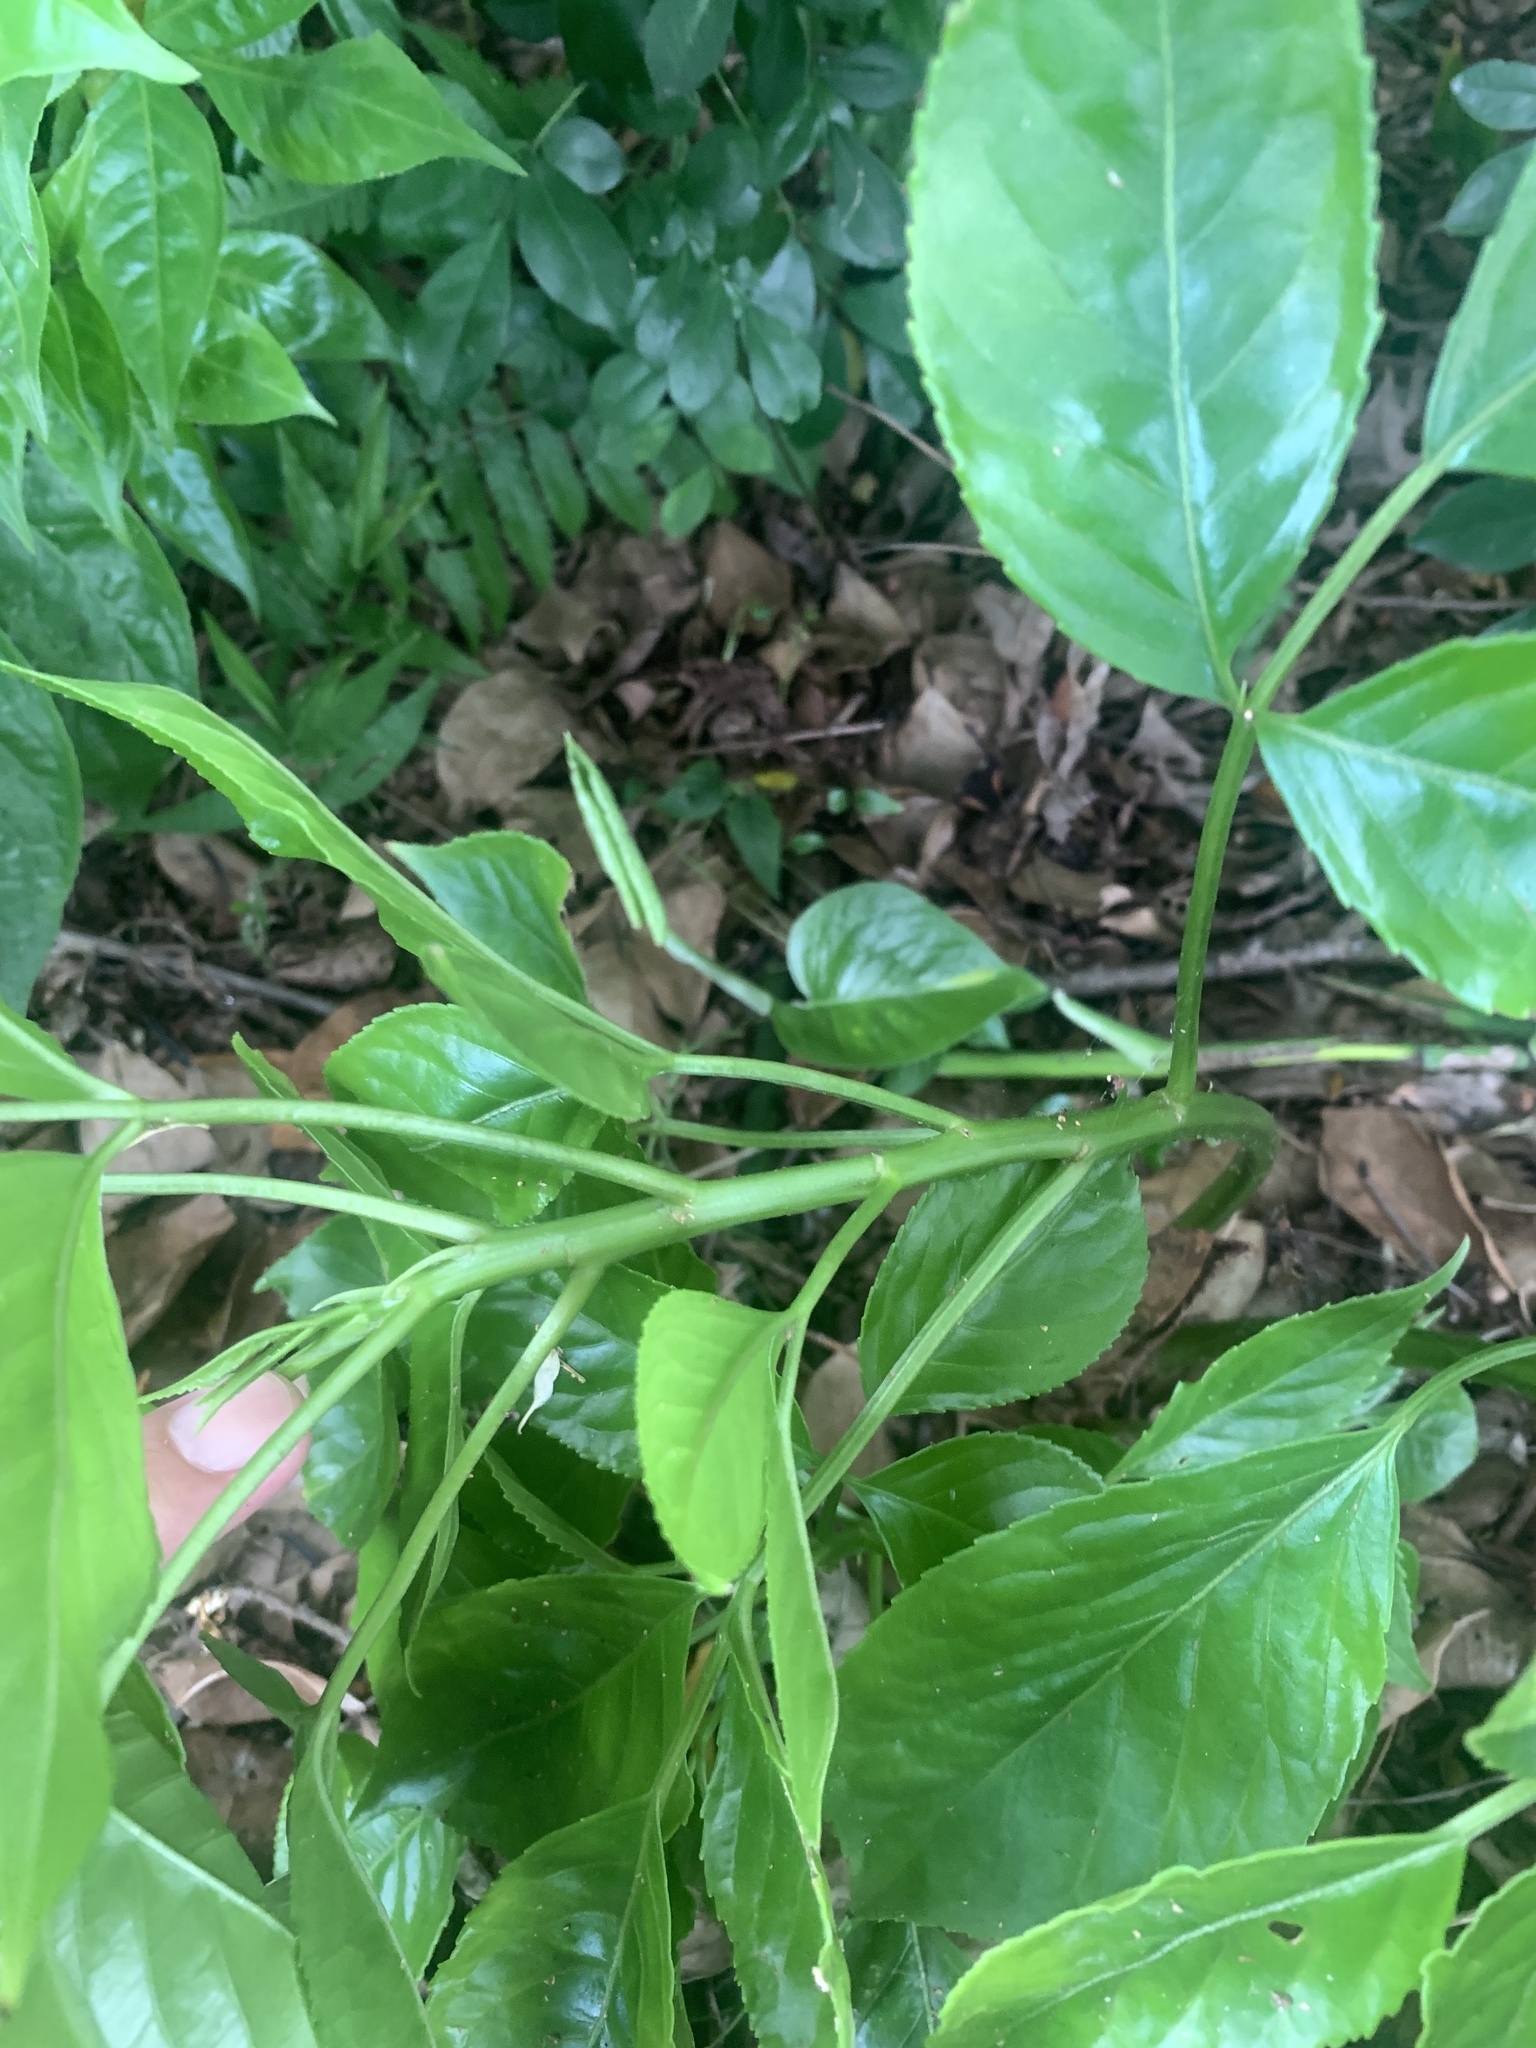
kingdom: Plantae
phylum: Tracheophyta
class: Magnoliopsida
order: Malpighiales
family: Phyllanthaceae
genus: Bischofia
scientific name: Bischofia javanica
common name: Javanese bishopwood
